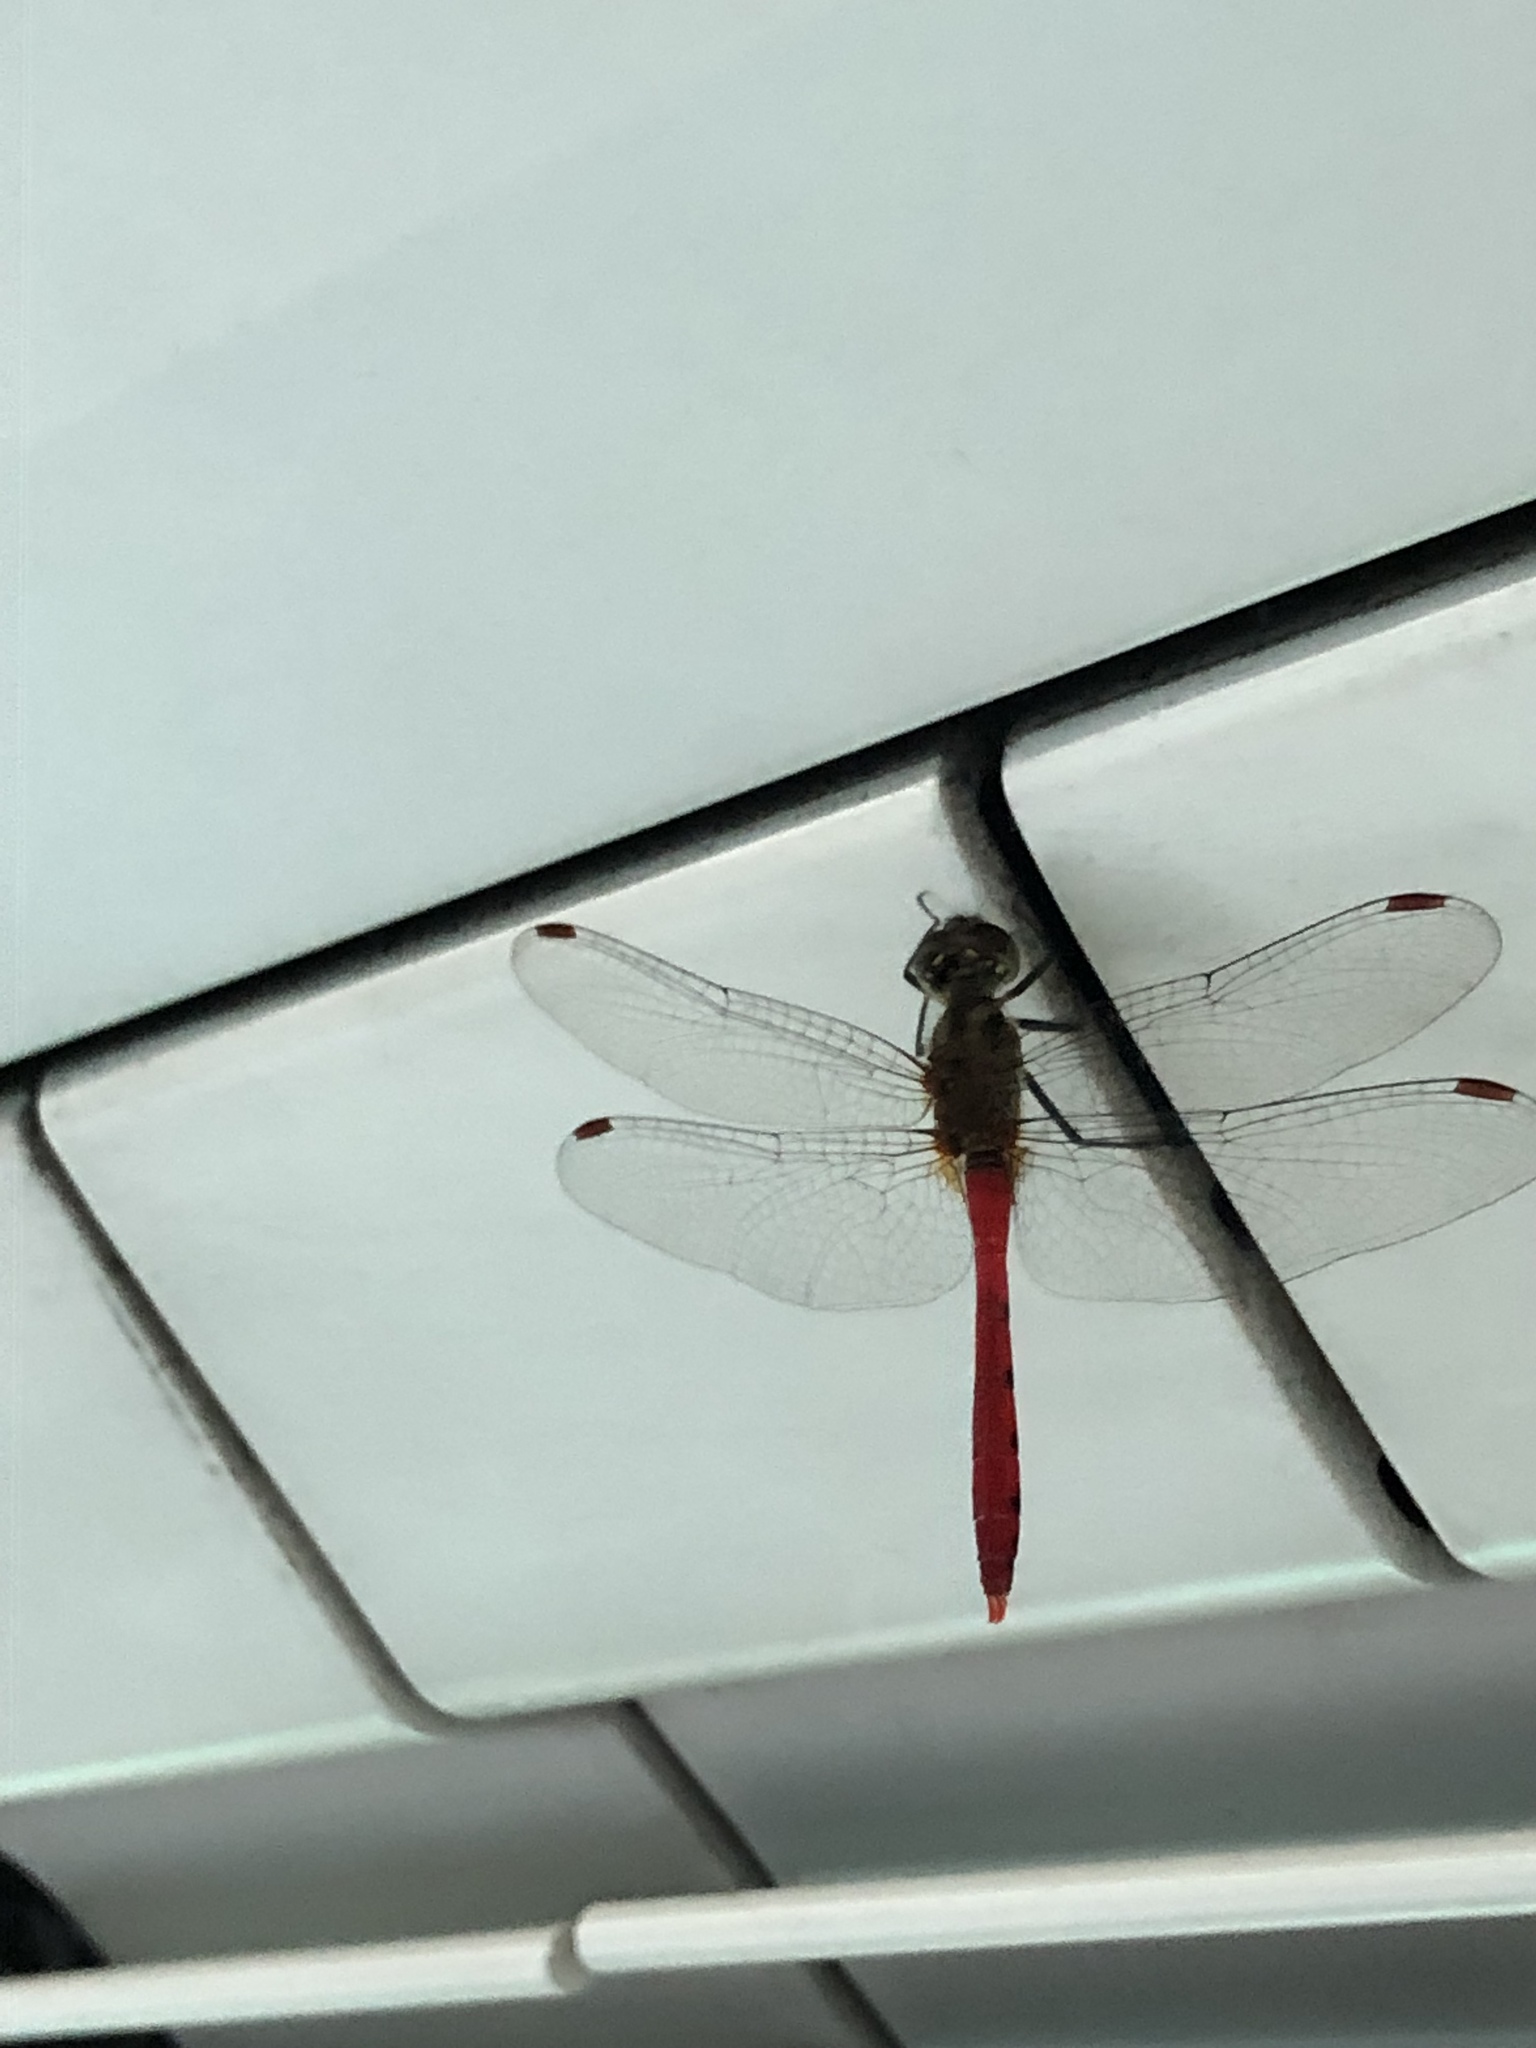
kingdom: Animalia
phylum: Arthropoda
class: Insecta
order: Odonata
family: Libellulidae
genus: Sympetrum
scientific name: Sympetrum eroticum
